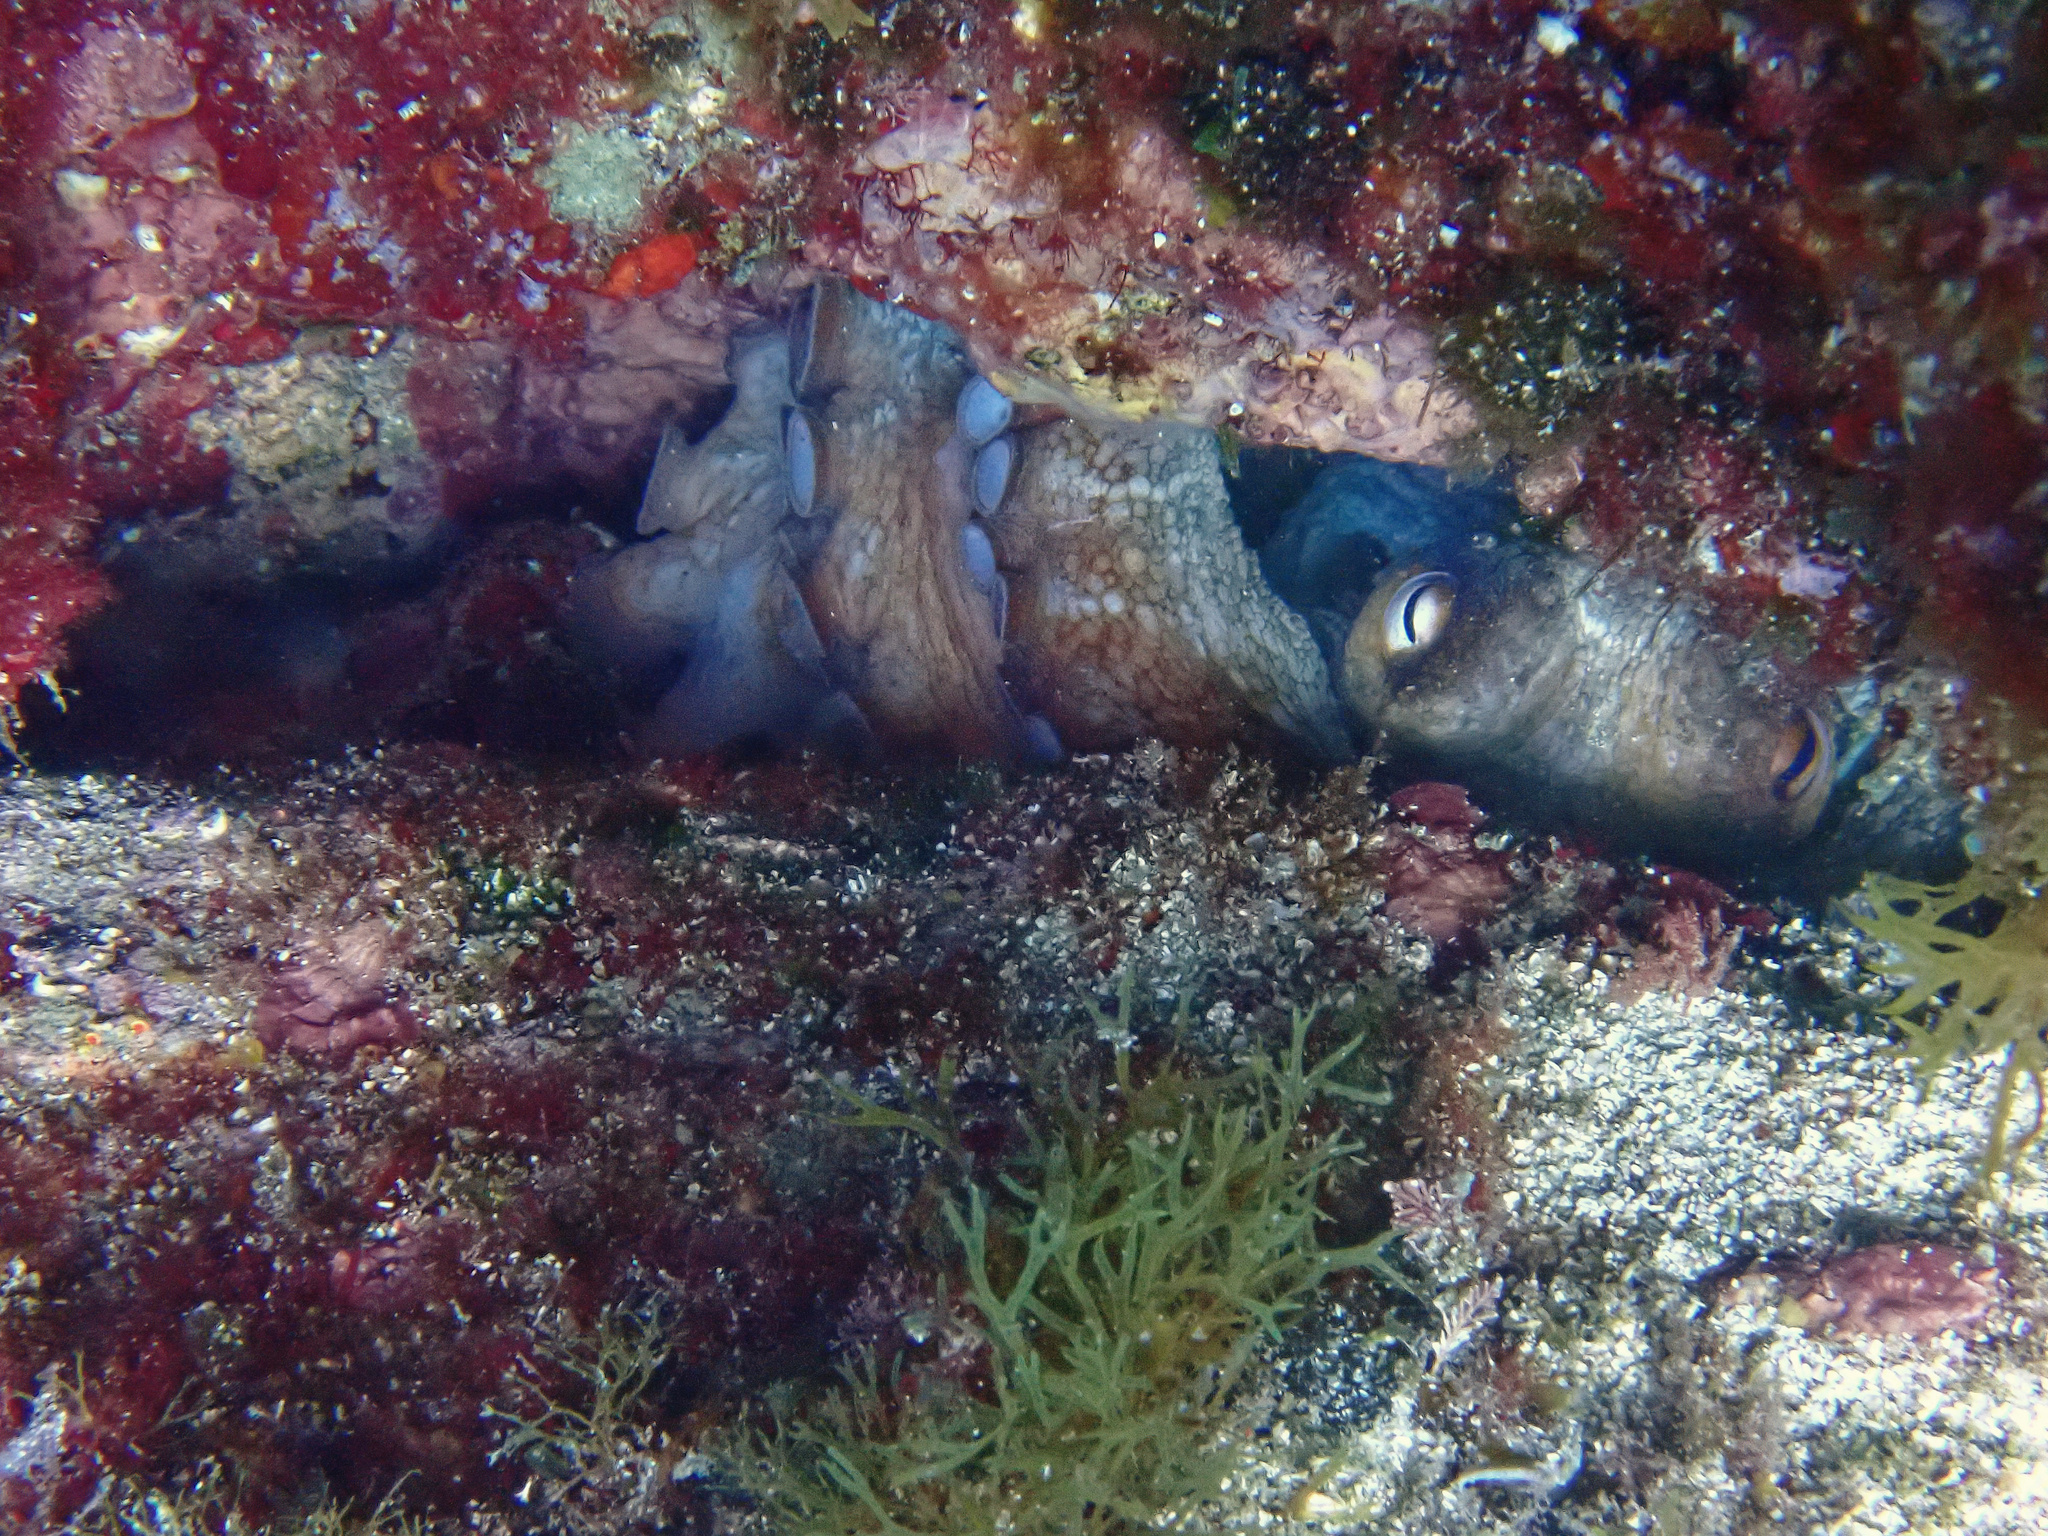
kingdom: Animalia
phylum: Mollusca
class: Cephalopoda
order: Octopoda
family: Octopodidae
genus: Octopus
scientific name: Octopus vulgaris
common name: Common octopus
